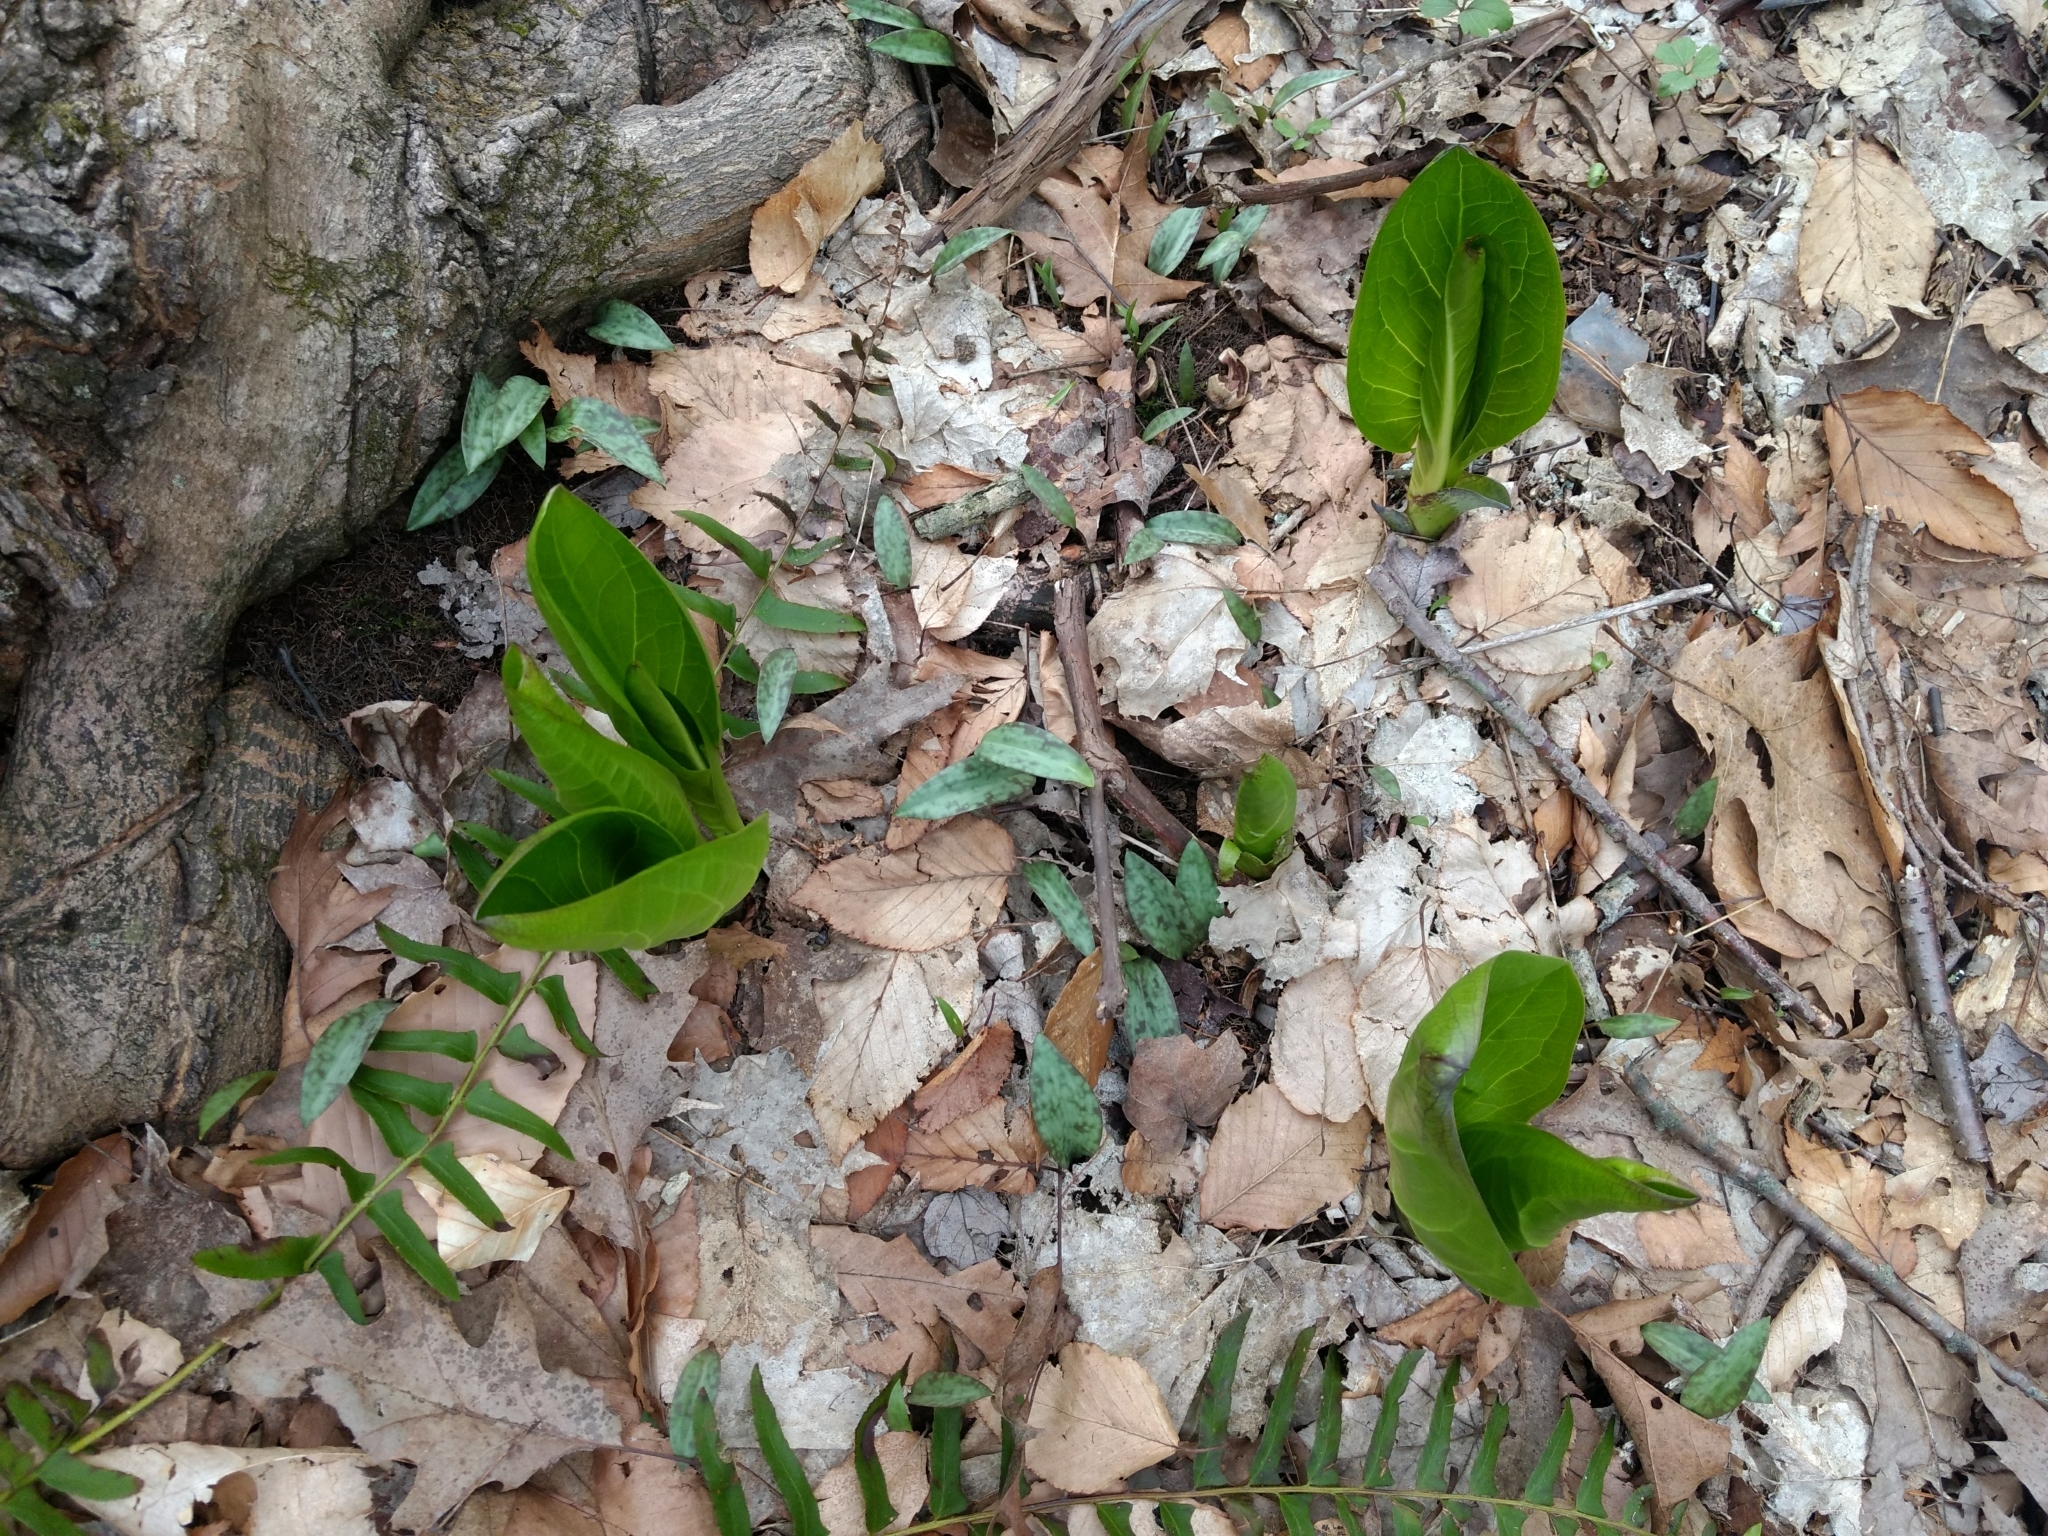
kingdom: Plantae
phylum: Tracheophyta
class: Liliopsida
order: Liliales
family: Liliaceae
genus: Erythronium
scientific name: Erythronium americanum
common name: Yellow adder's-tongue
